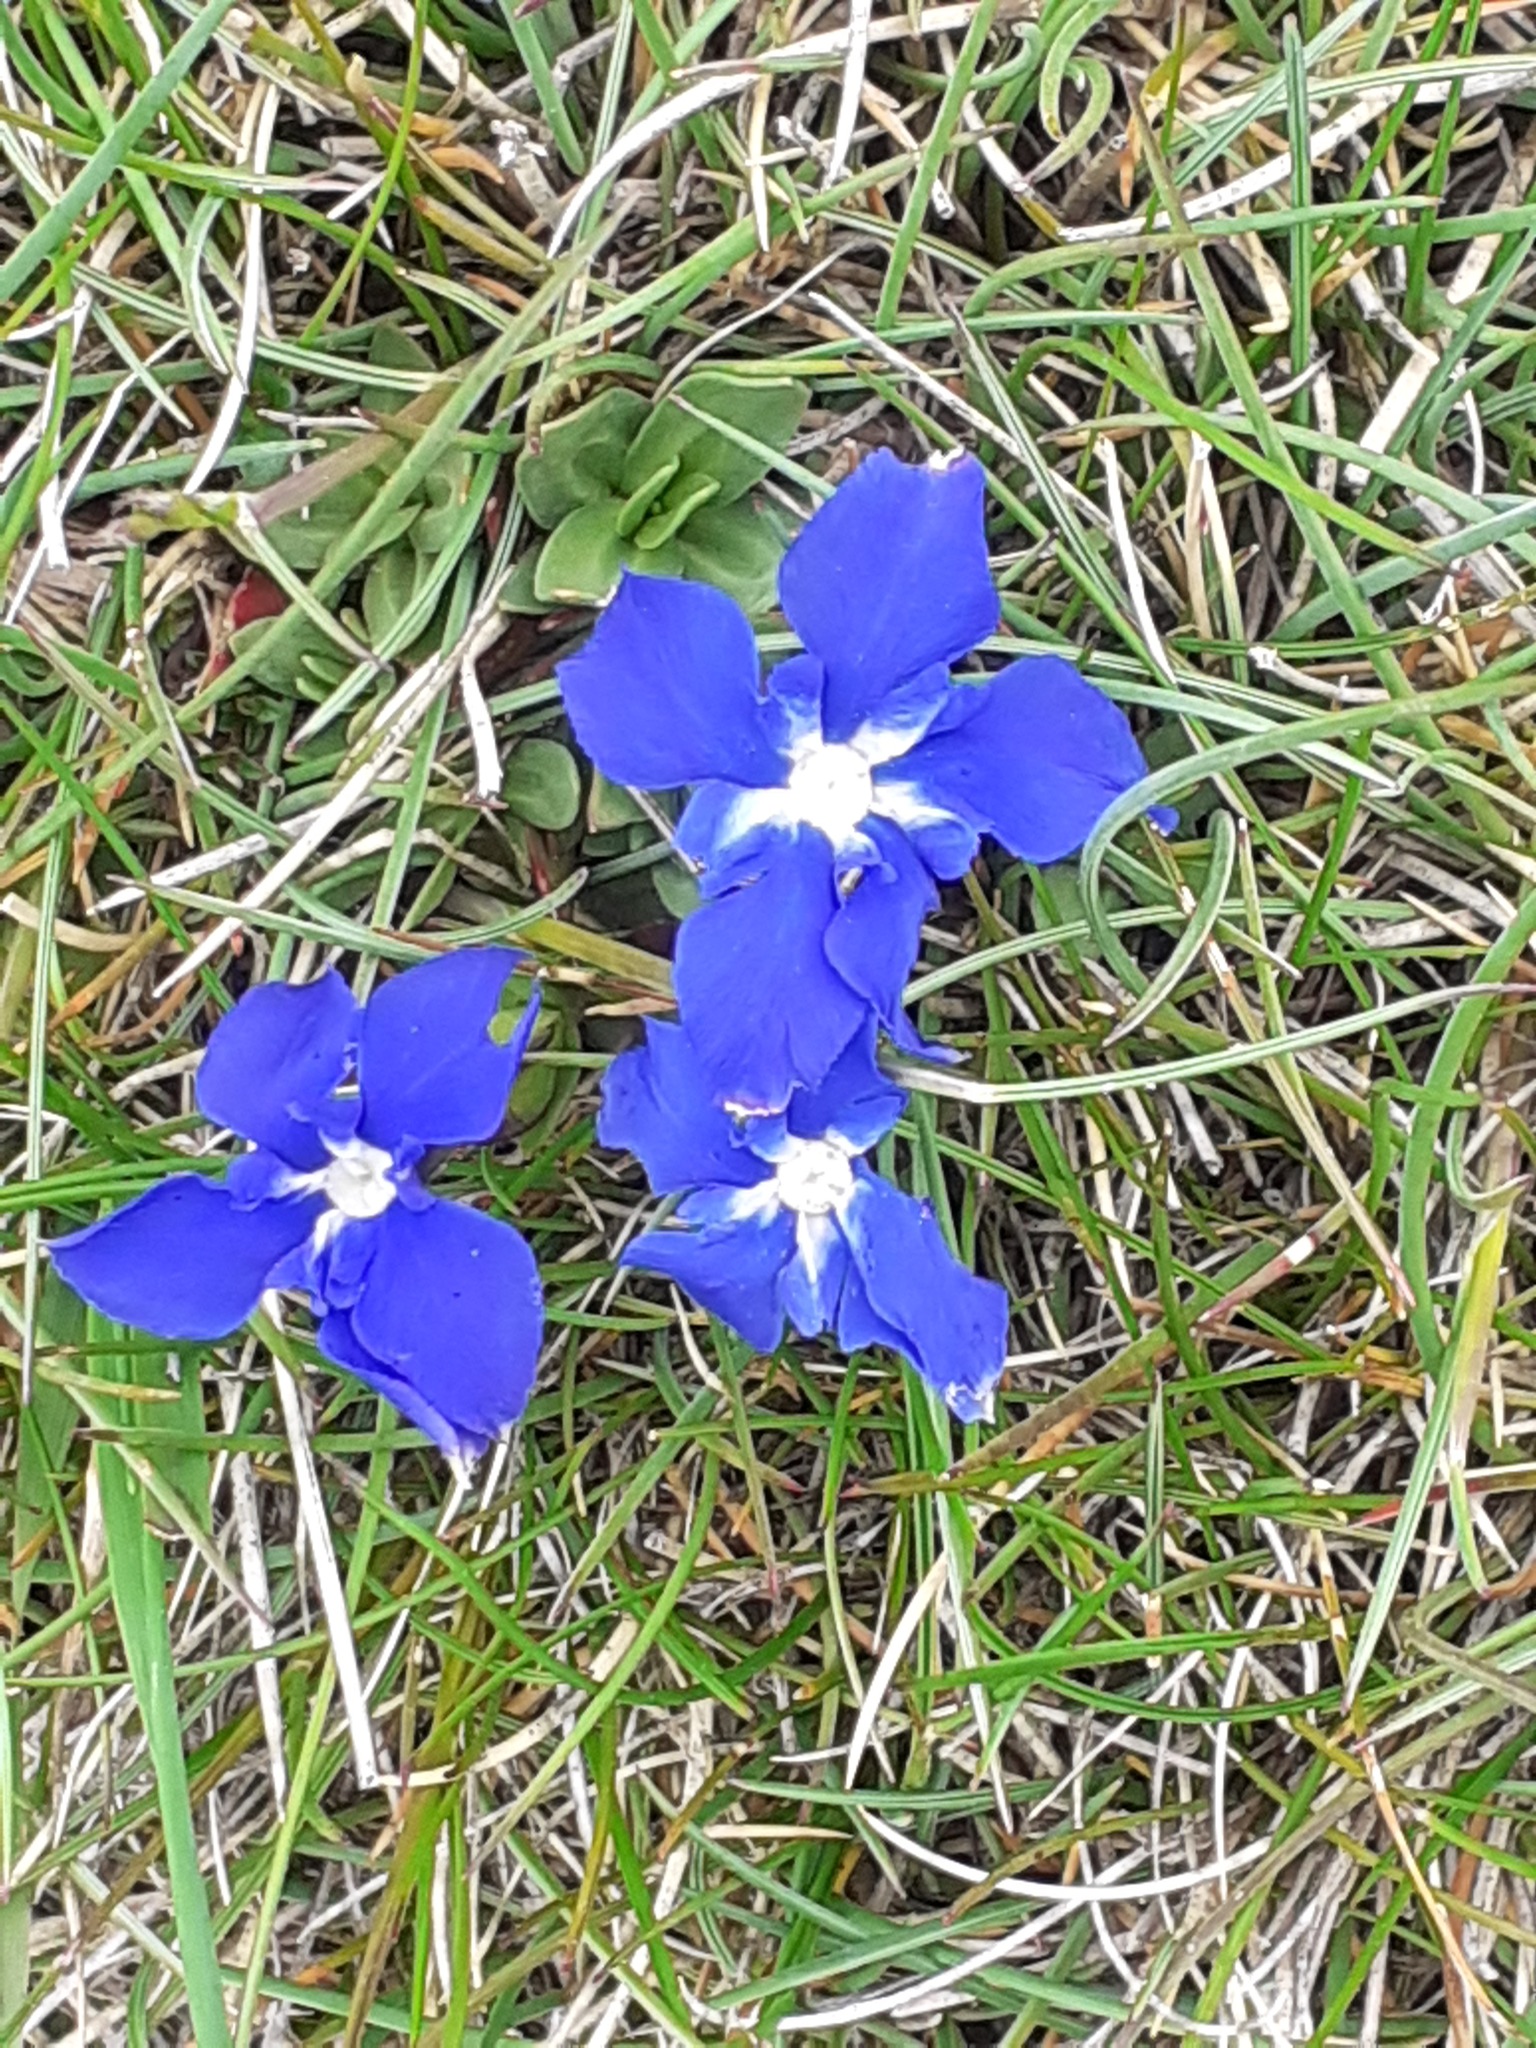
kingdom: Plantae
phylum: Tracheophyta
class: Magnoliopsida
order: Gentianales
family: Gentianaceae
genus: Gentiana
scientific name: Gentiana verna
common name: Spring gentian
